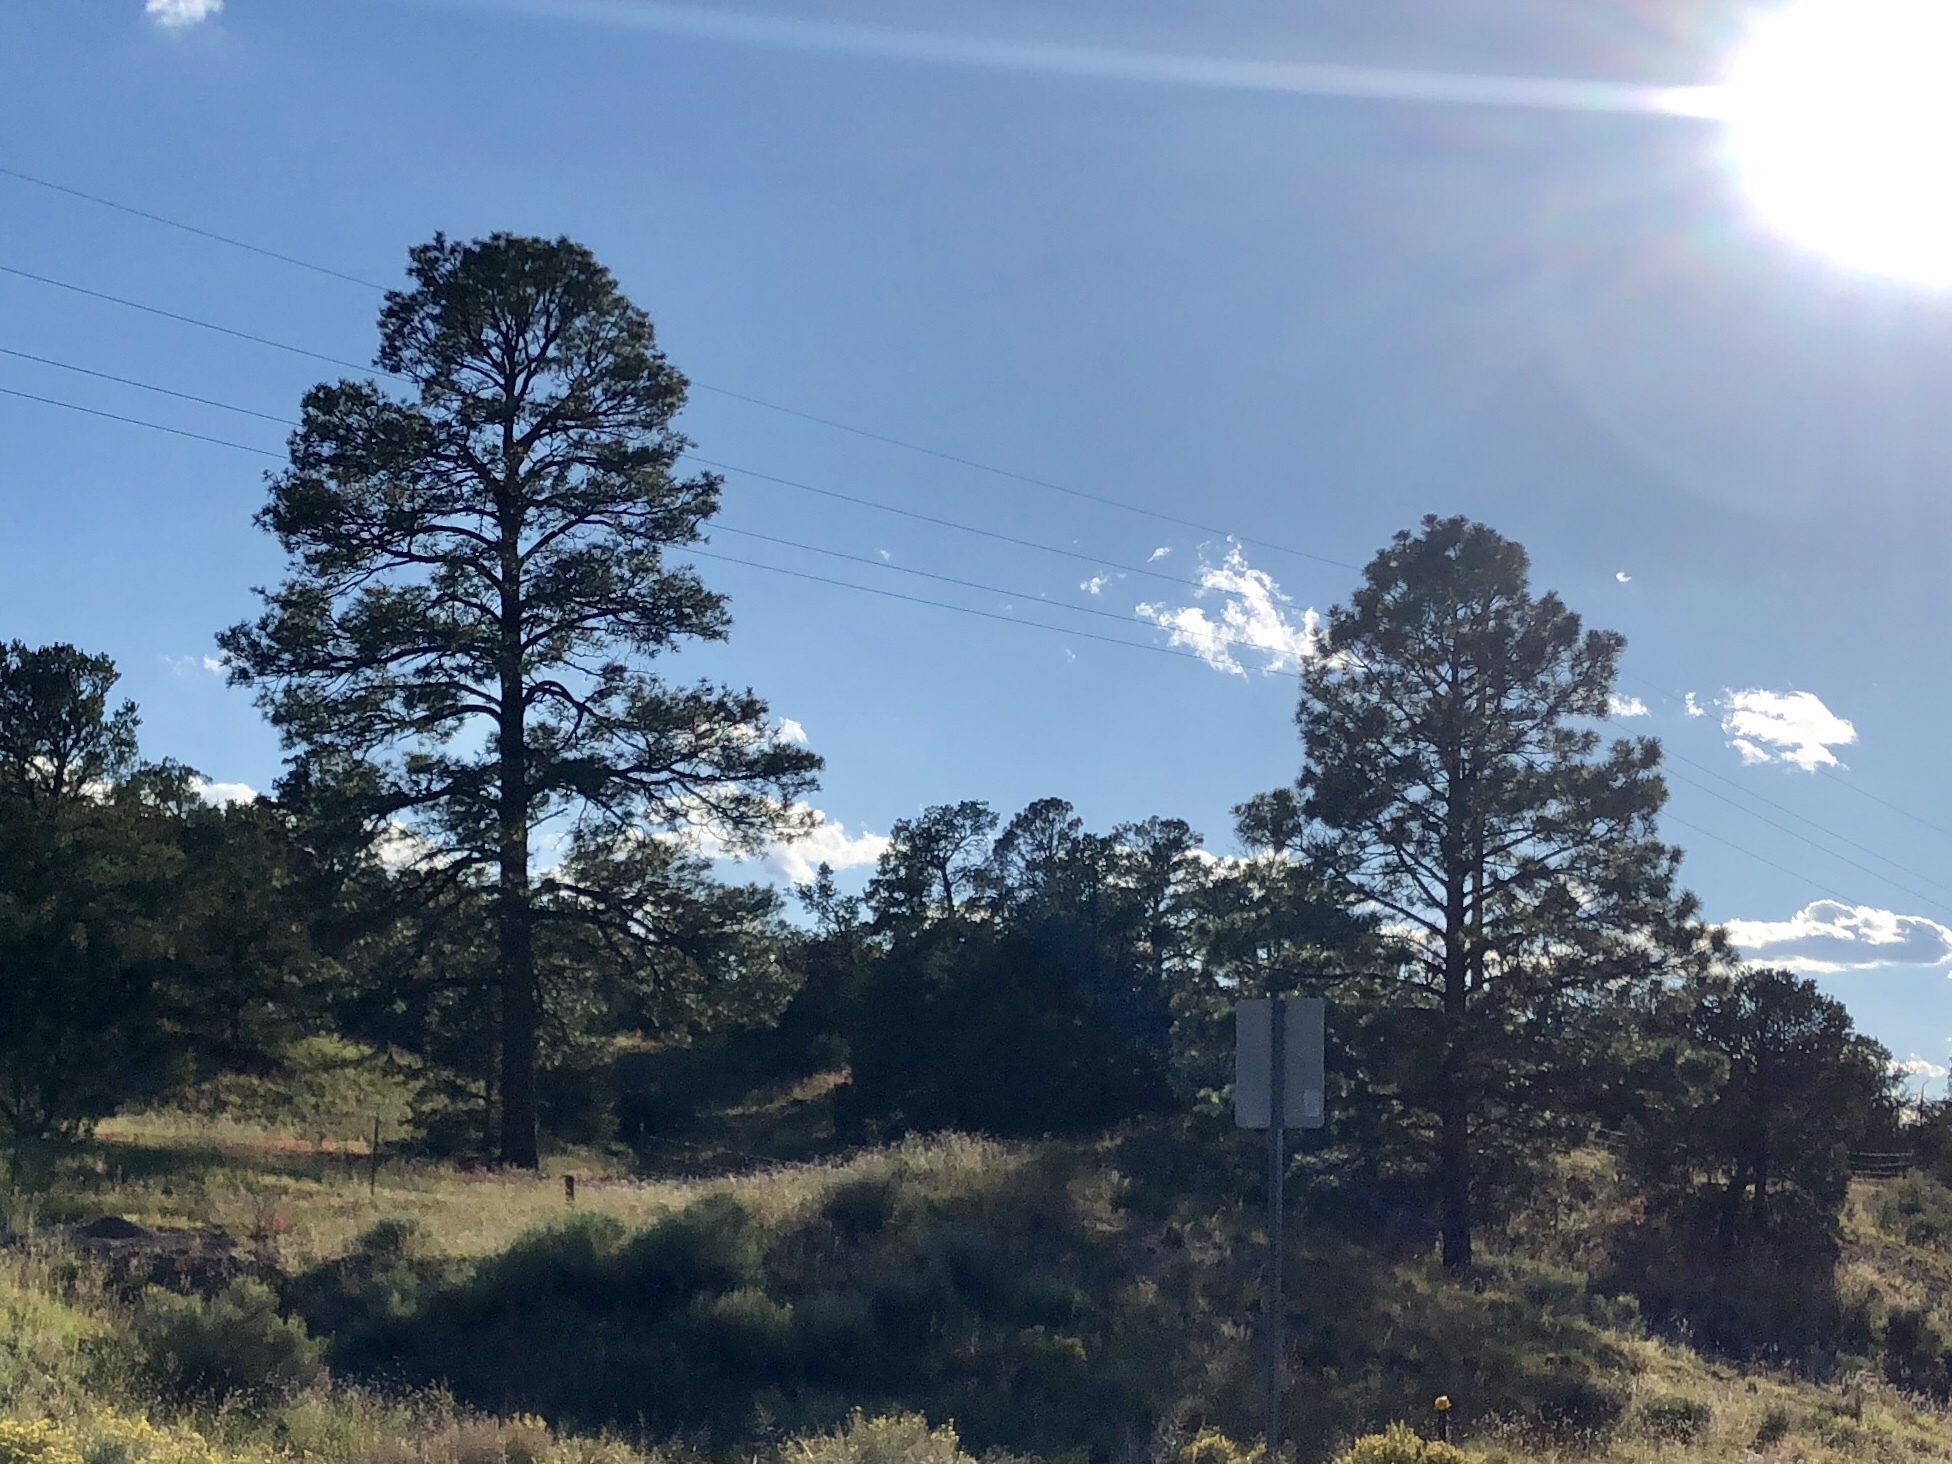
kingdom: Plantae
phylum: Tracheophyta
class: Pinopsida
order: Pinales
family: Pinaceae
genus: Pinus
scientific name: Pinus ponderosa
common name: Western yellow-pine
